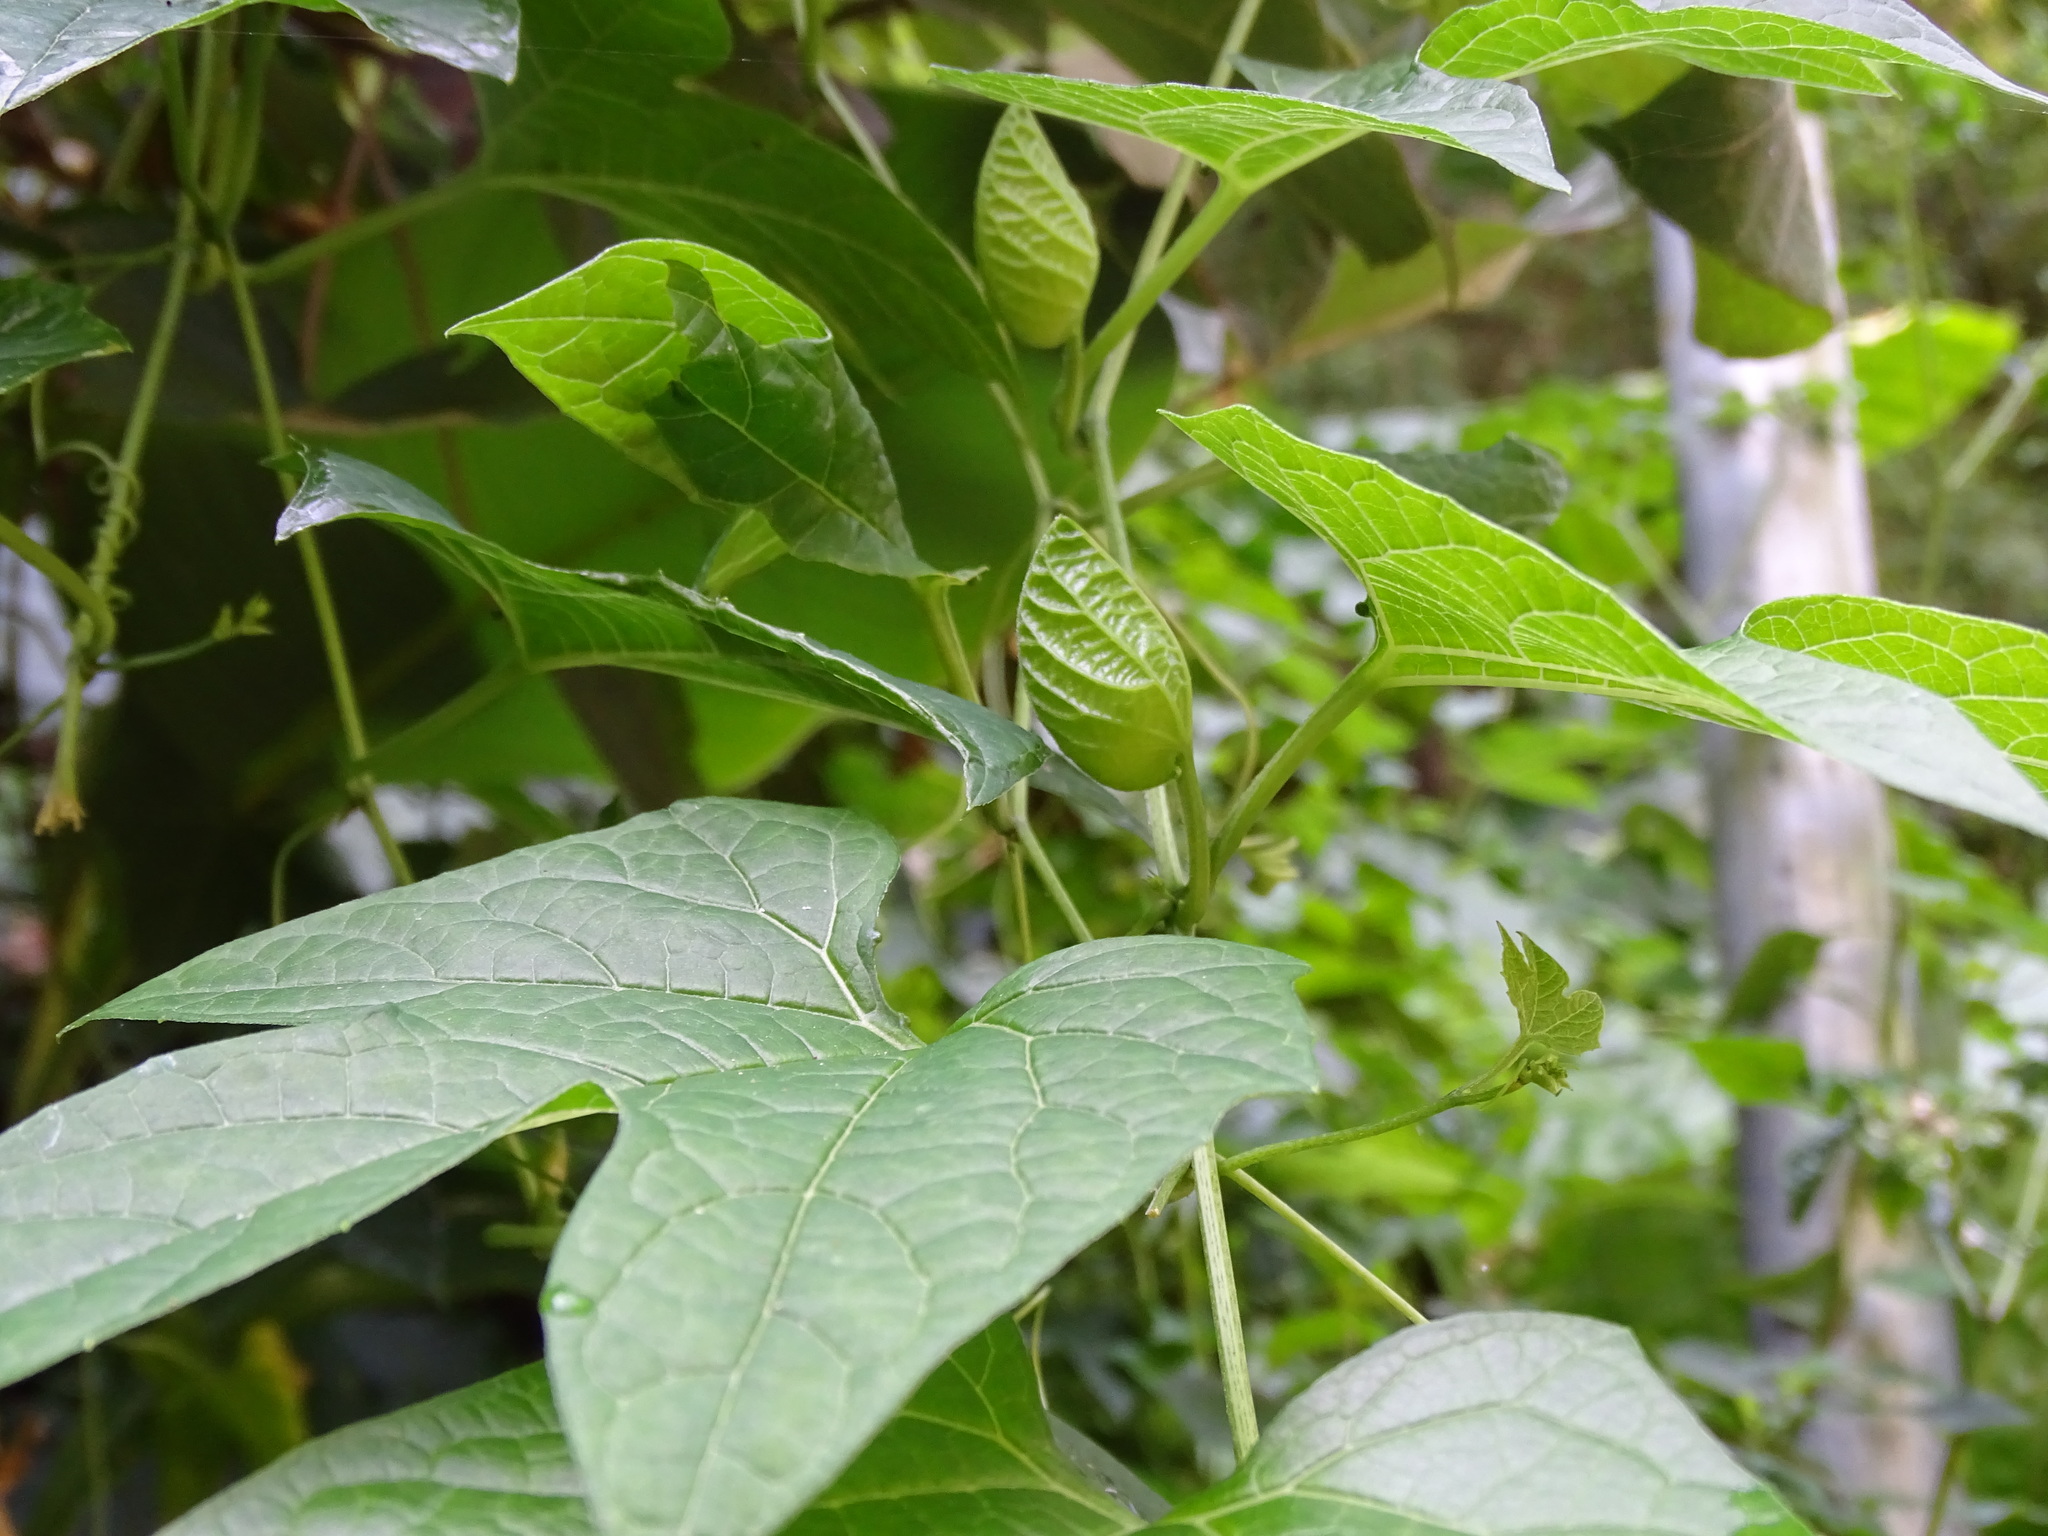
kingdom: Plantae
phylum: Tracheophyta
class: Magnoliopsida
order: Cucurbitales
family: Cucurbitaceae
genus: Momordica
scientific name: Momordica cochinchinensis
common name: Chinese bitter-cucumber
